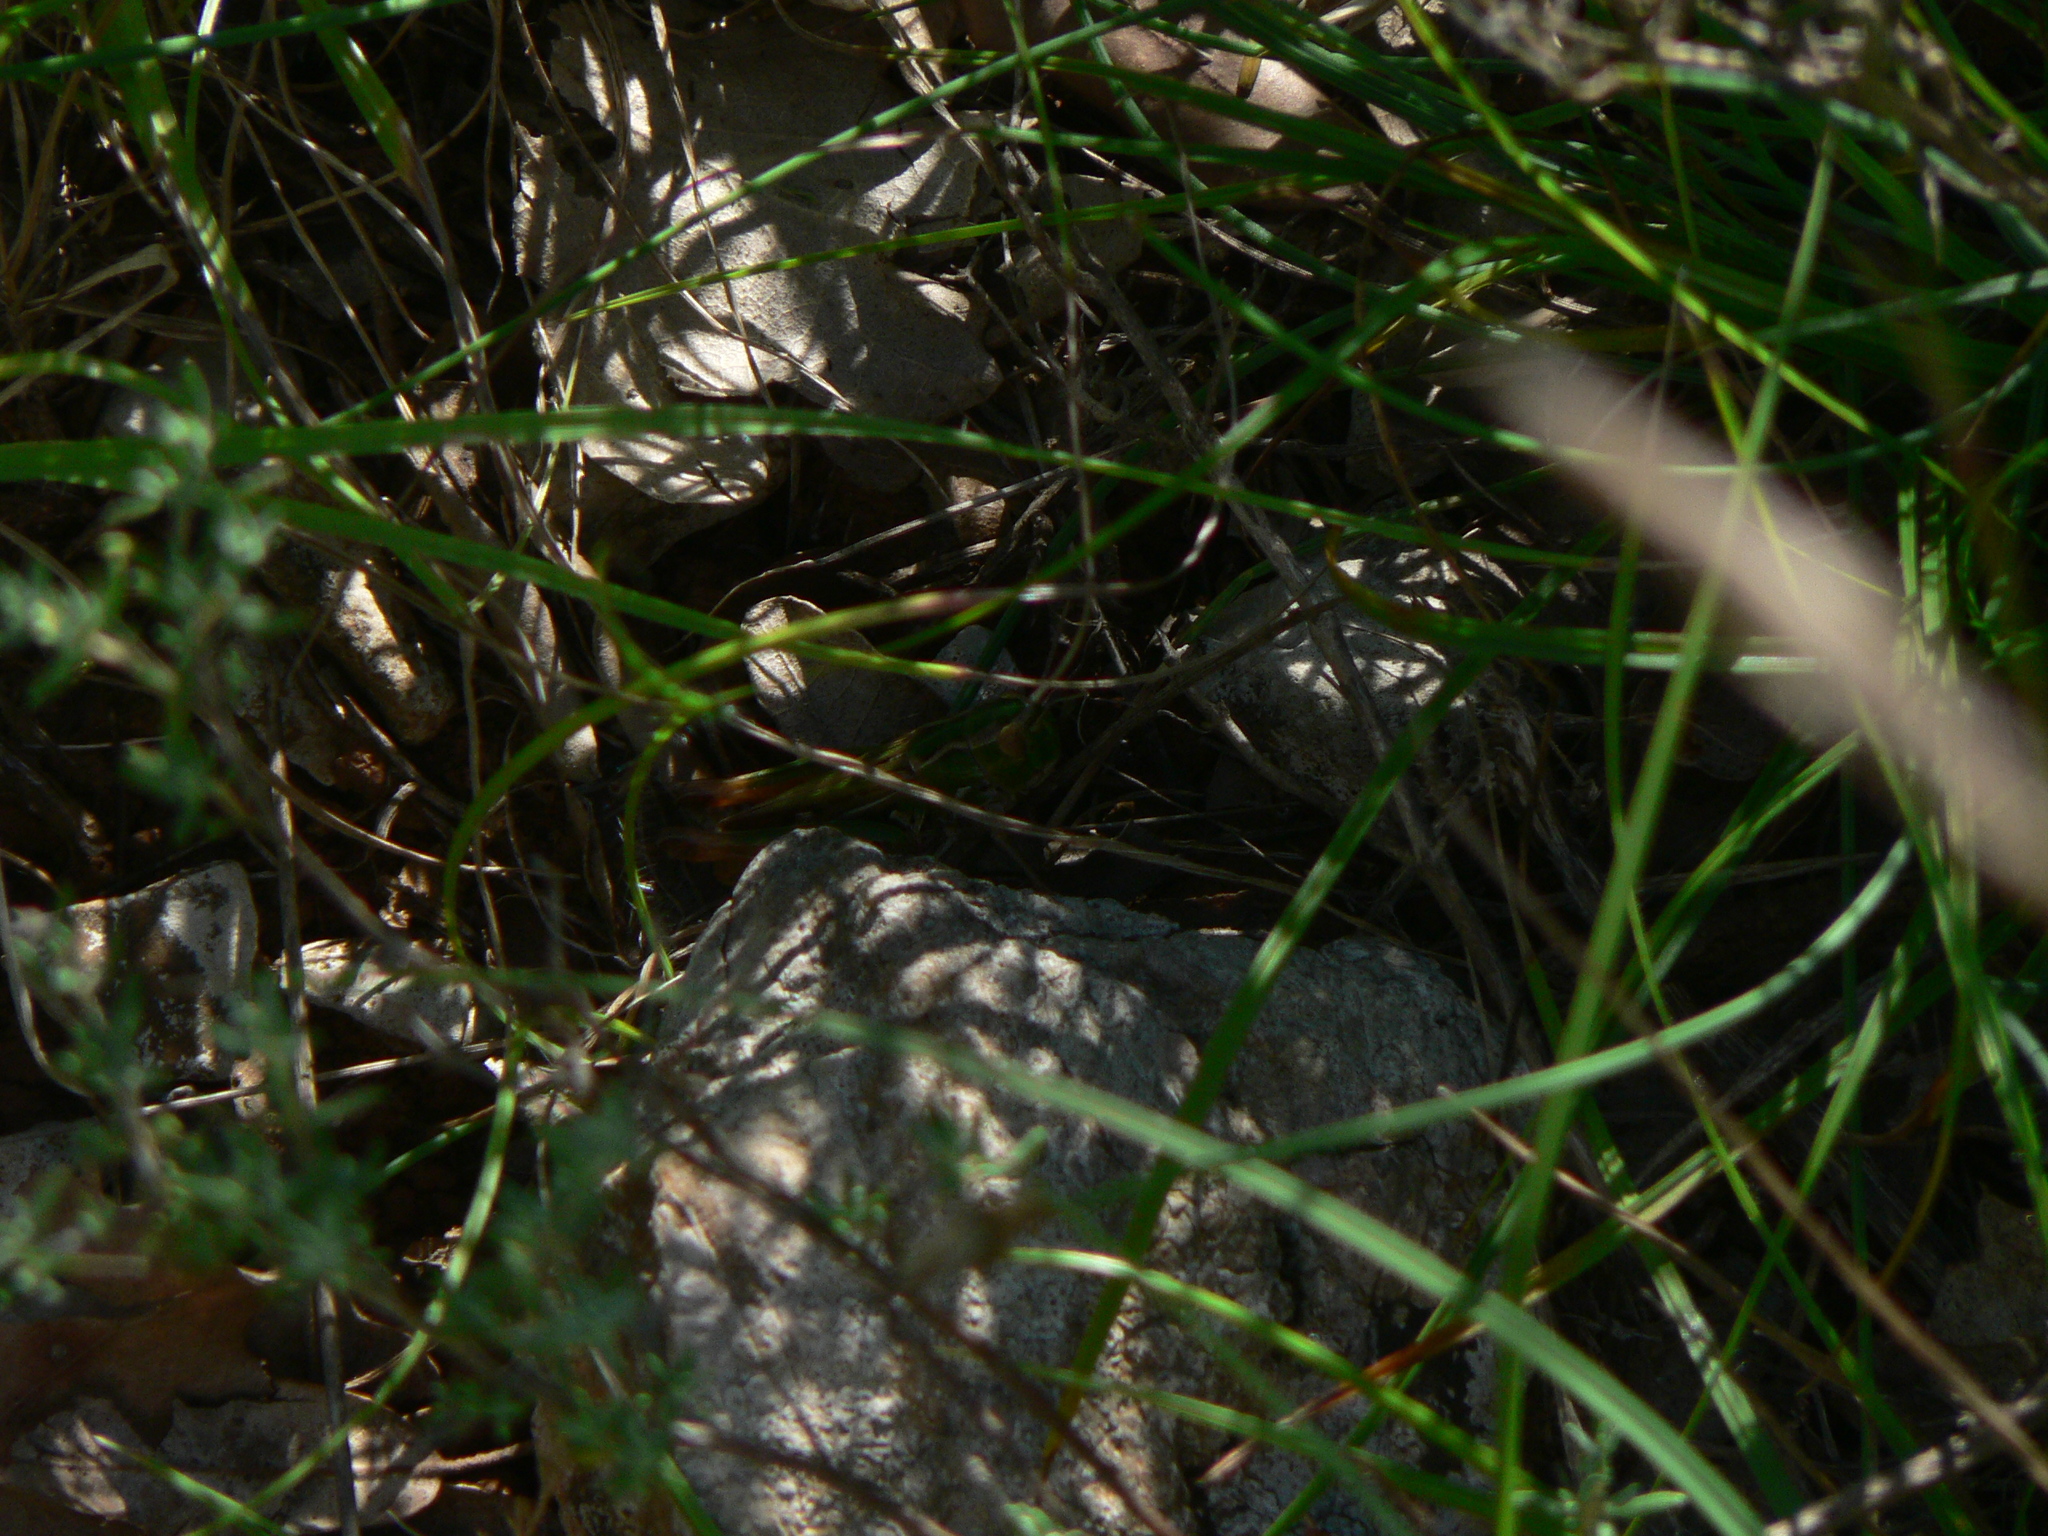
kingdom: Animalia
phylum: Arthropoda
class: Insecta
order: Orthoptera
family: Acrididae
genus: Stenobothrus
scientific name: Stenobothrus fischeri
